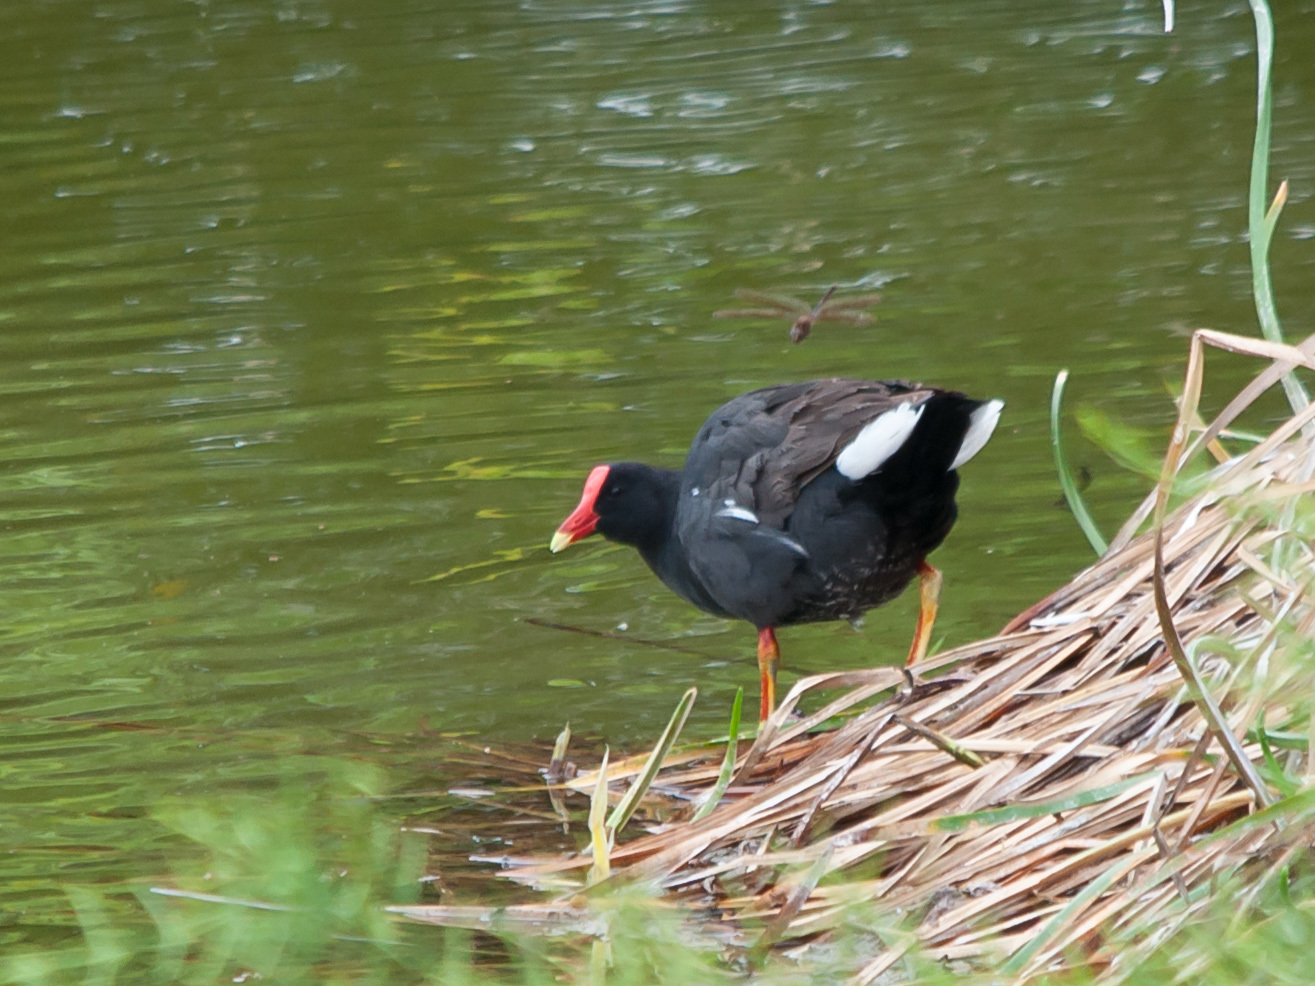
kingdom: Animalia
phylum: Chordata
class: Aves
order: Gruiformes
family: Rallidae
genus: Gallinula
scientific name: Gallinula chloropus
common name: Common moorhen
